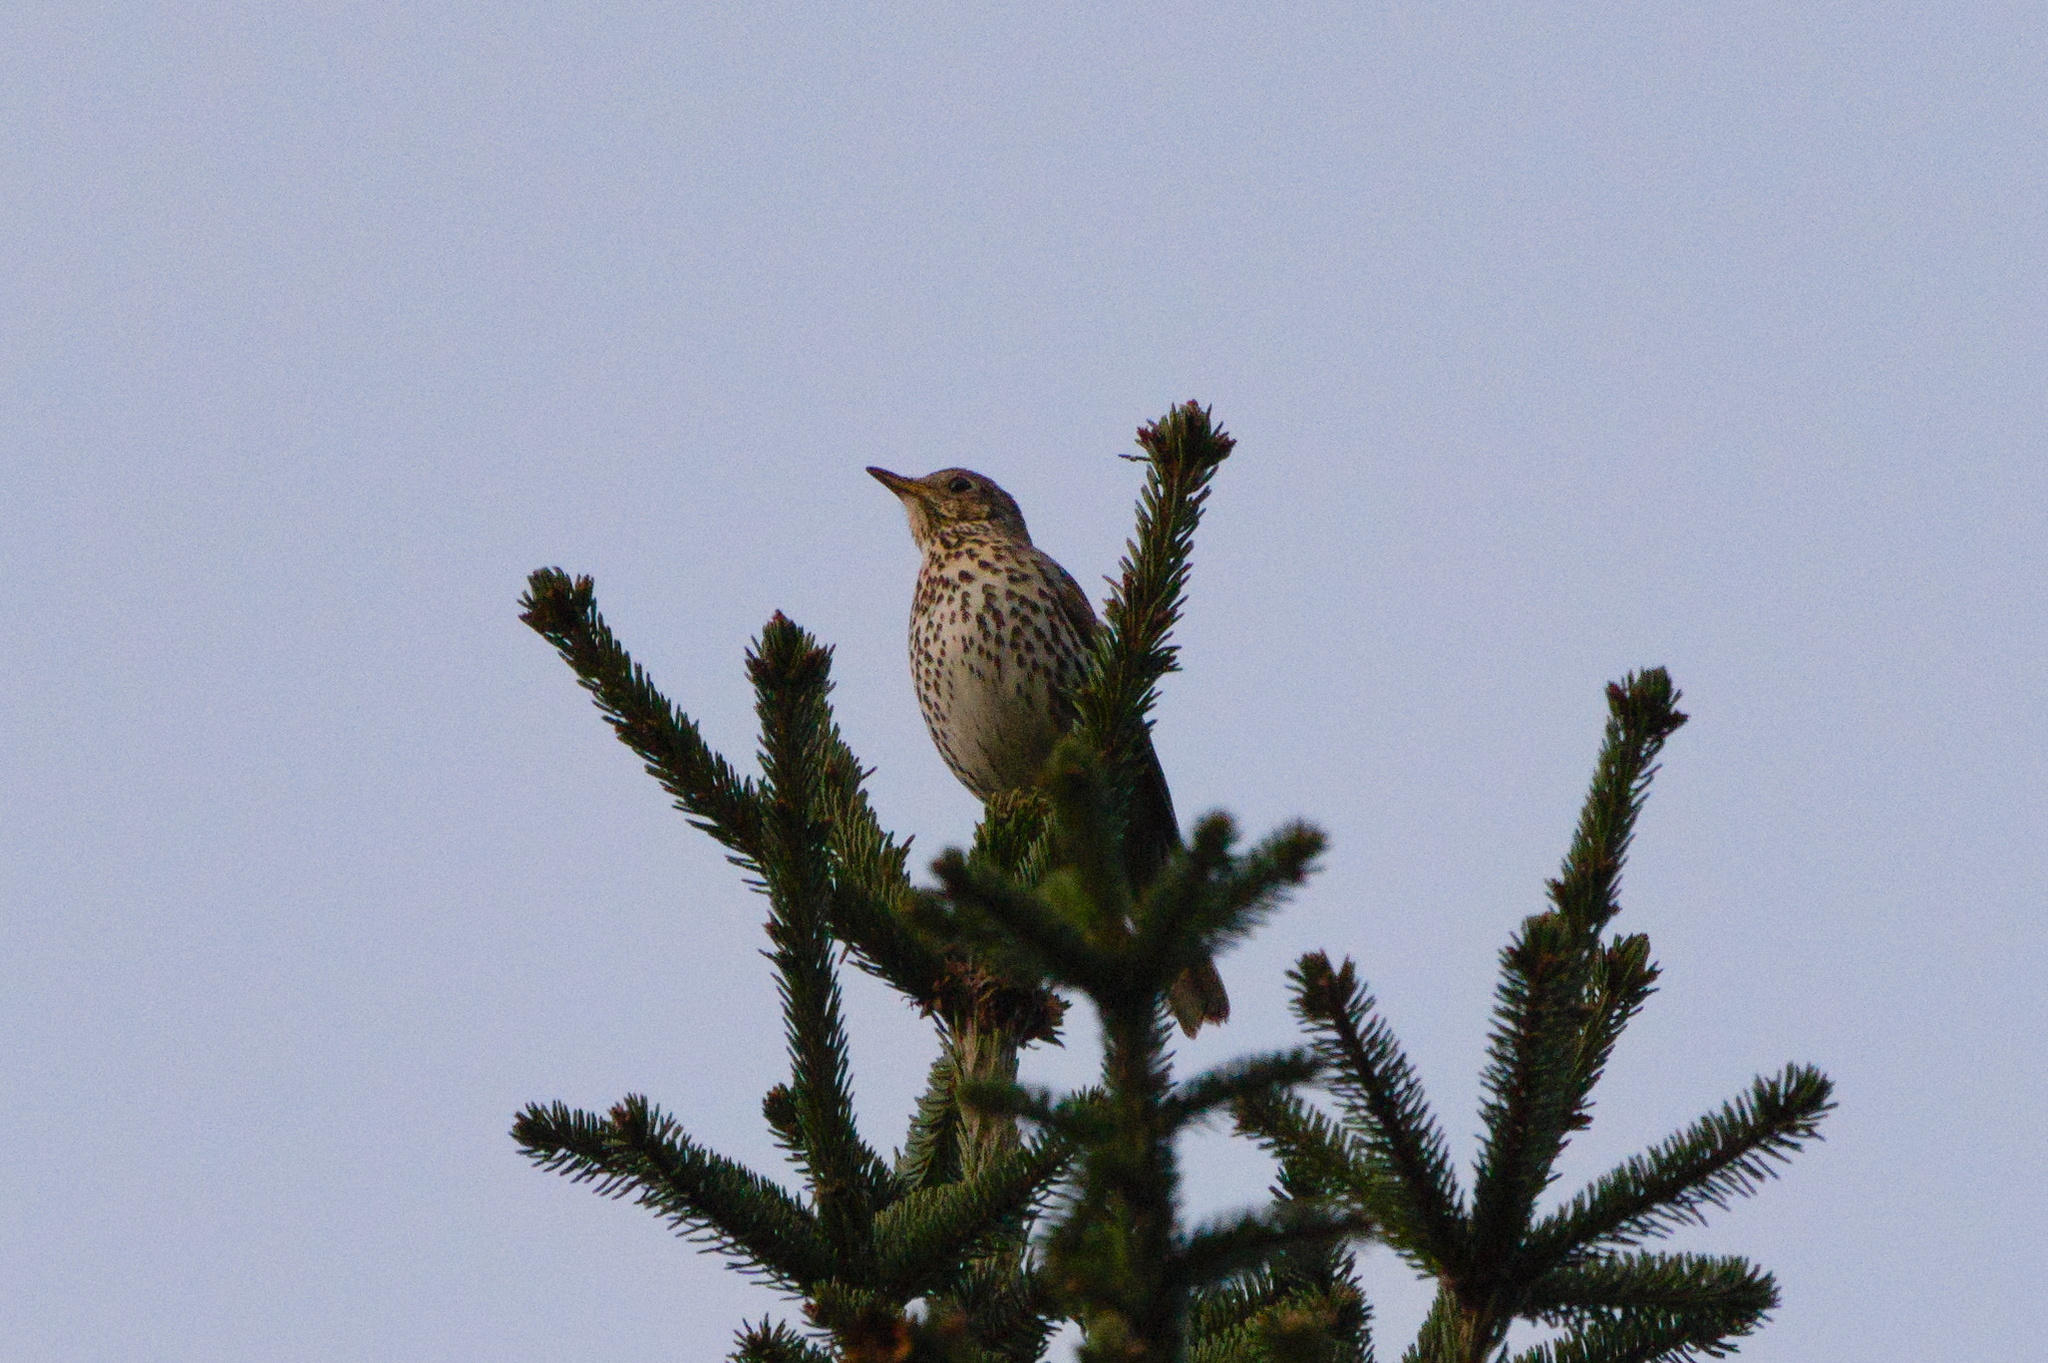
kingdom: Animalia
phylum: Chordata
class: Aves
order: Passeriformes
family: Turdidae
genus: Turdus
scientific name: Turdus philomelos
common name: Song thrush
